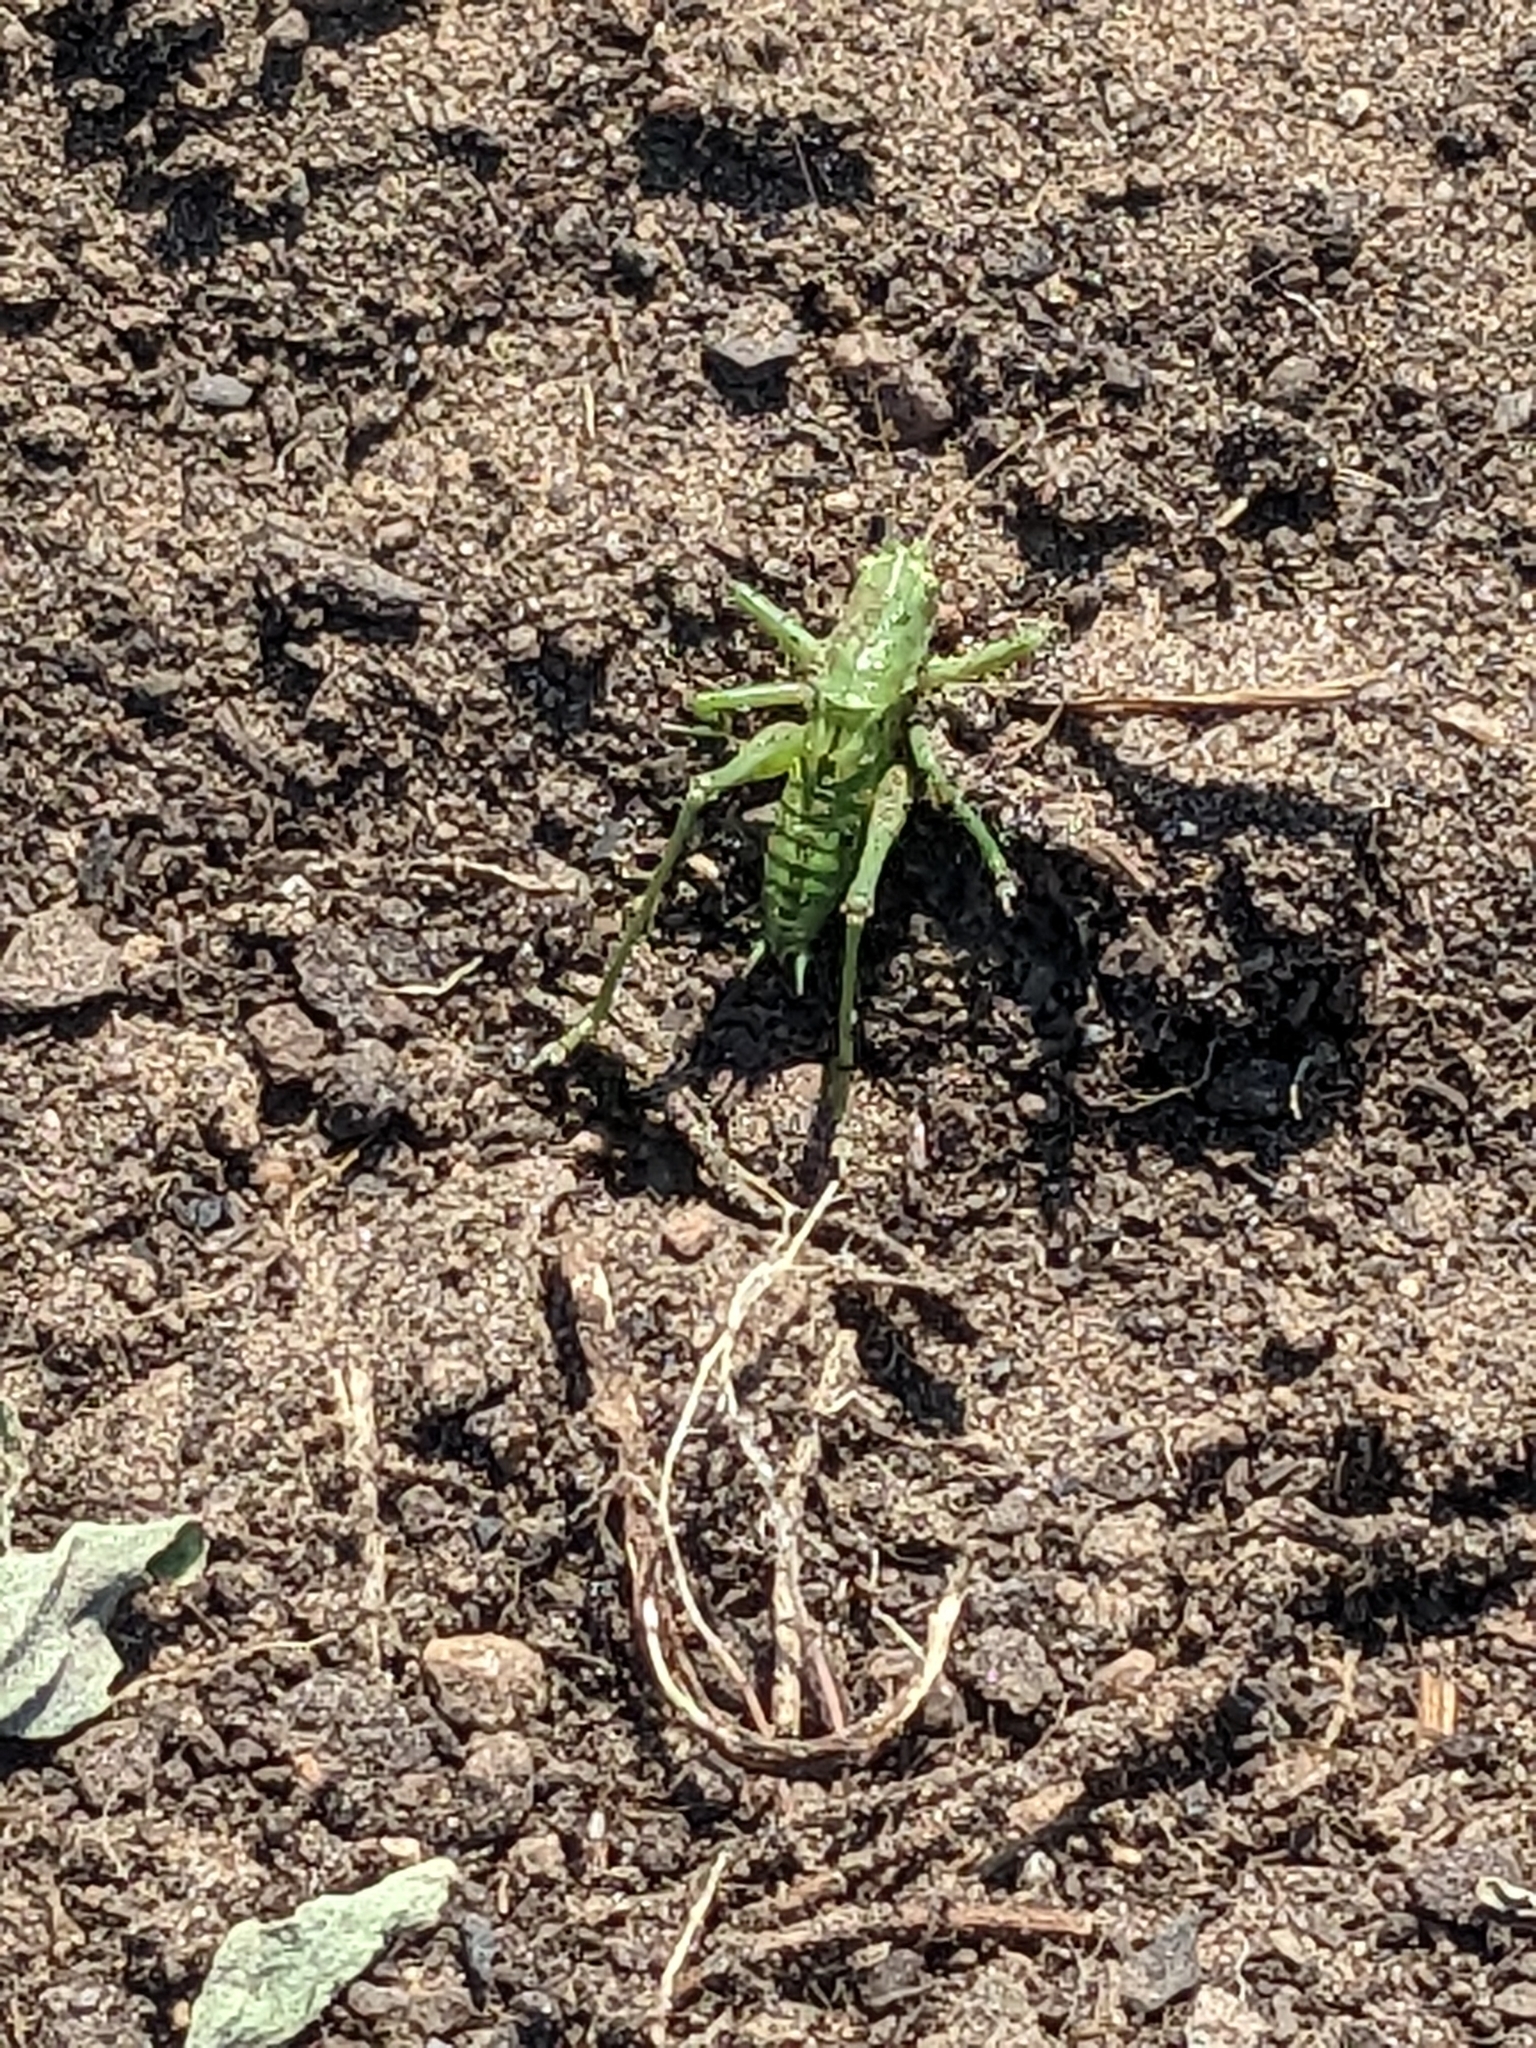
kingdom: Animalia
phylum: Arthropoda
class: Insecta
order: Orthoptera
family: Tettigoniidae
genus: Tettigonia
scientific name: Tettigonia viridissima
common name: Great green bush-cricket
